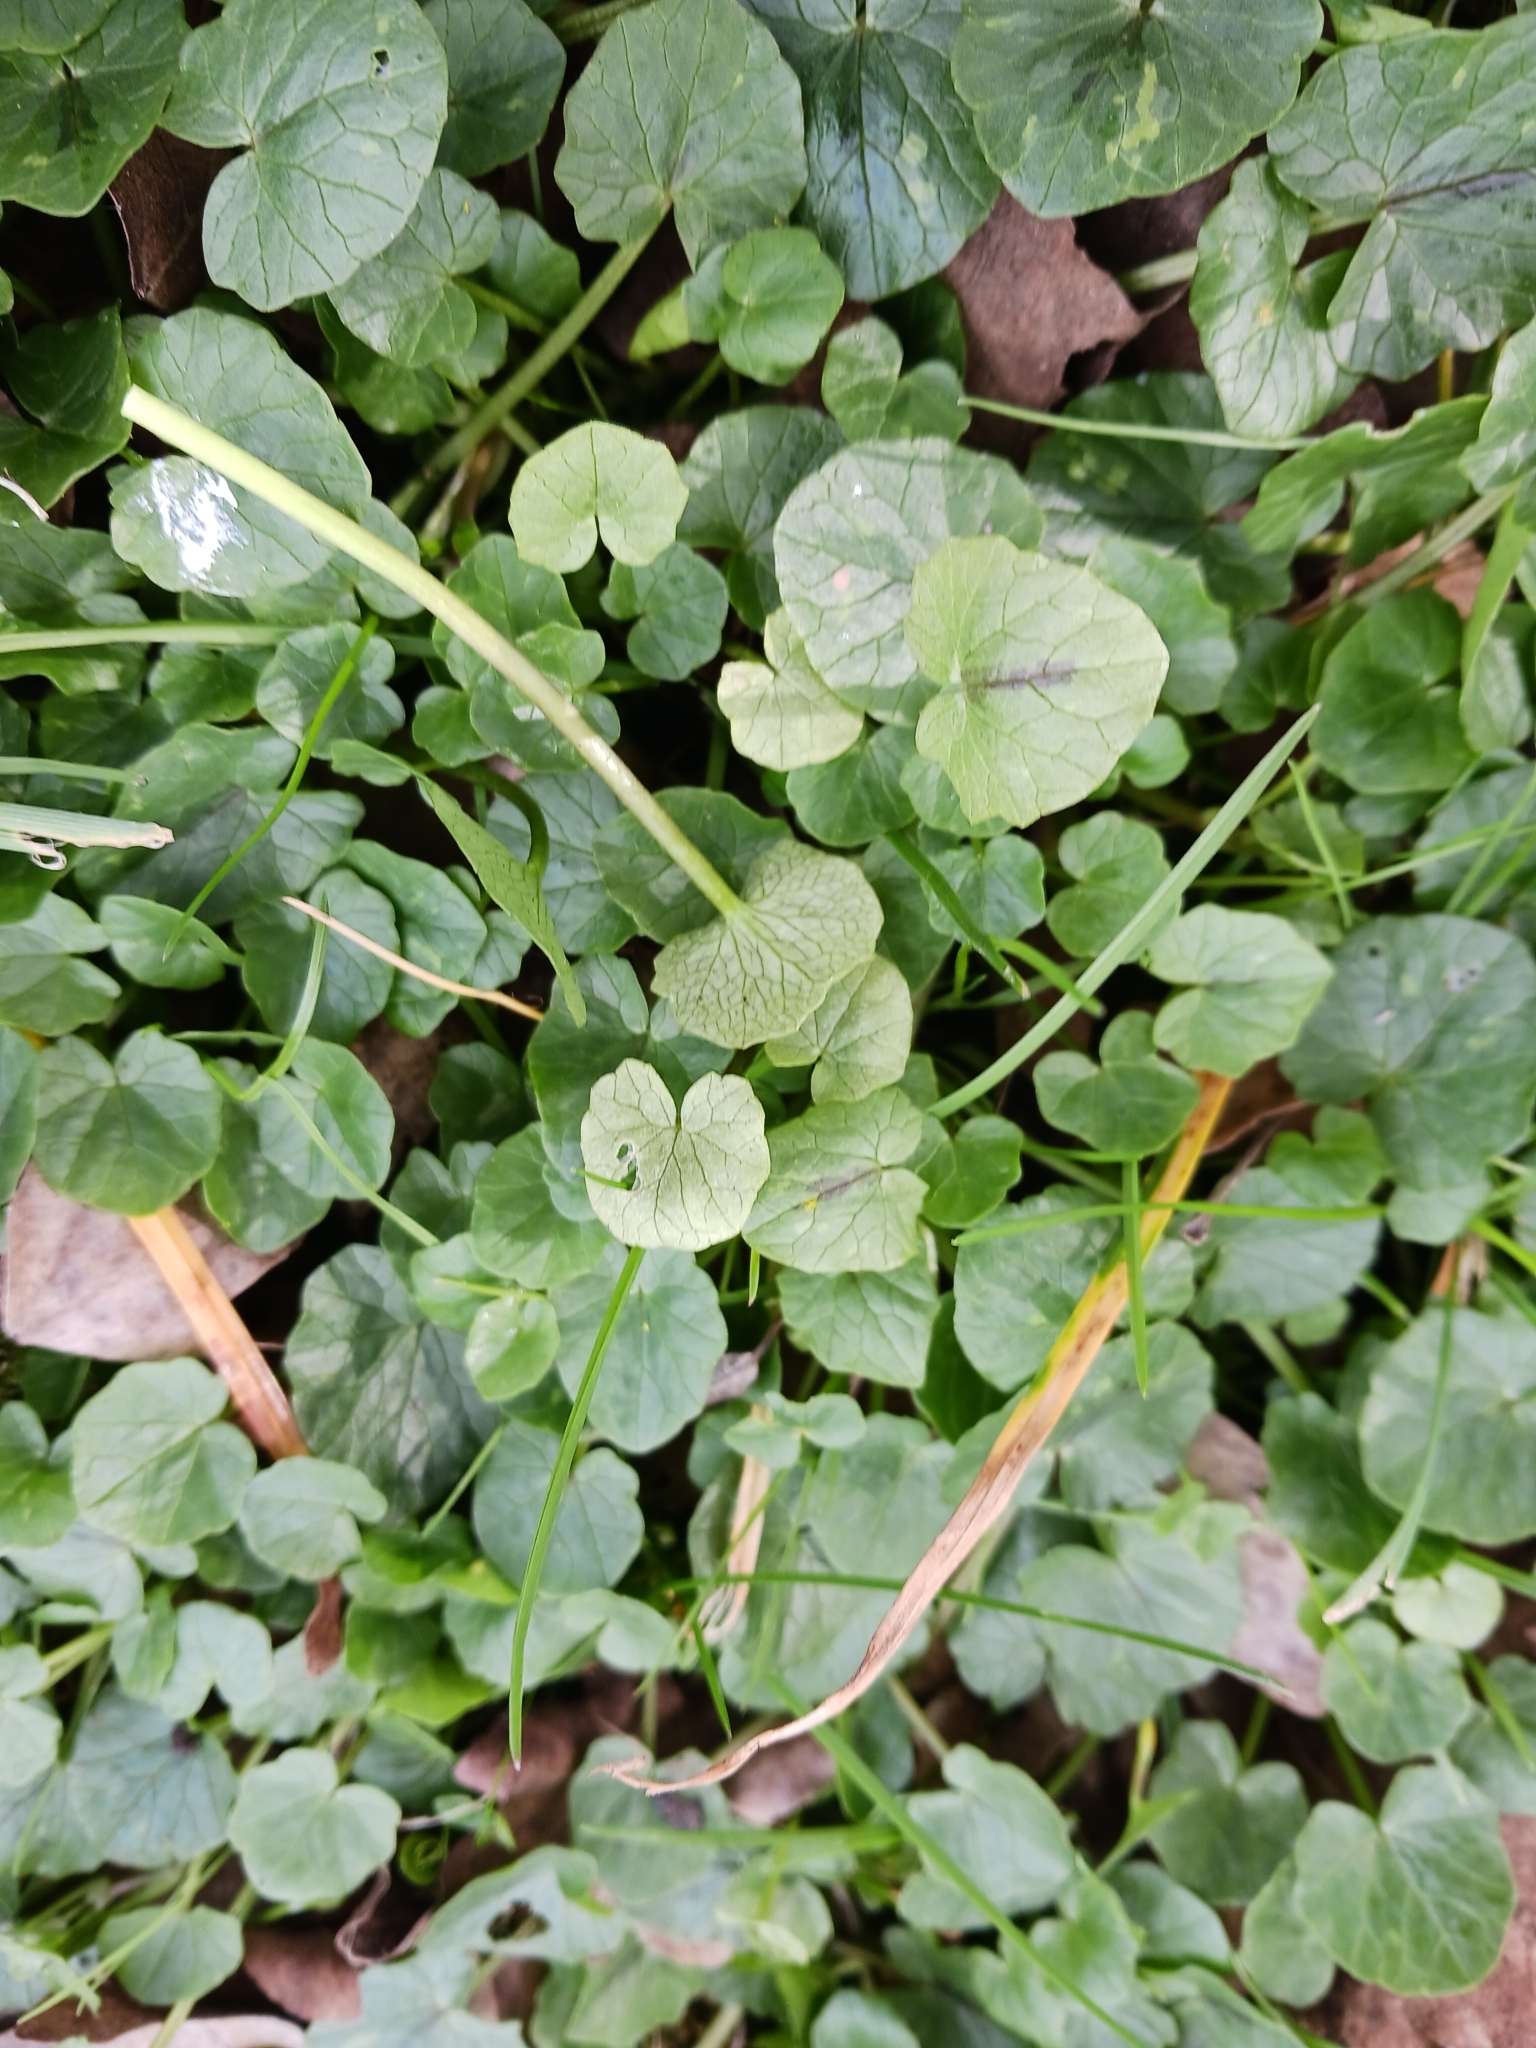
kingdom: Chromista
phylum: Oomycota
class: Peronosporea
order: Peronosporales
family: Peronosporaceae
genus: Peronospora
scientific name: Peronospora ficariae
